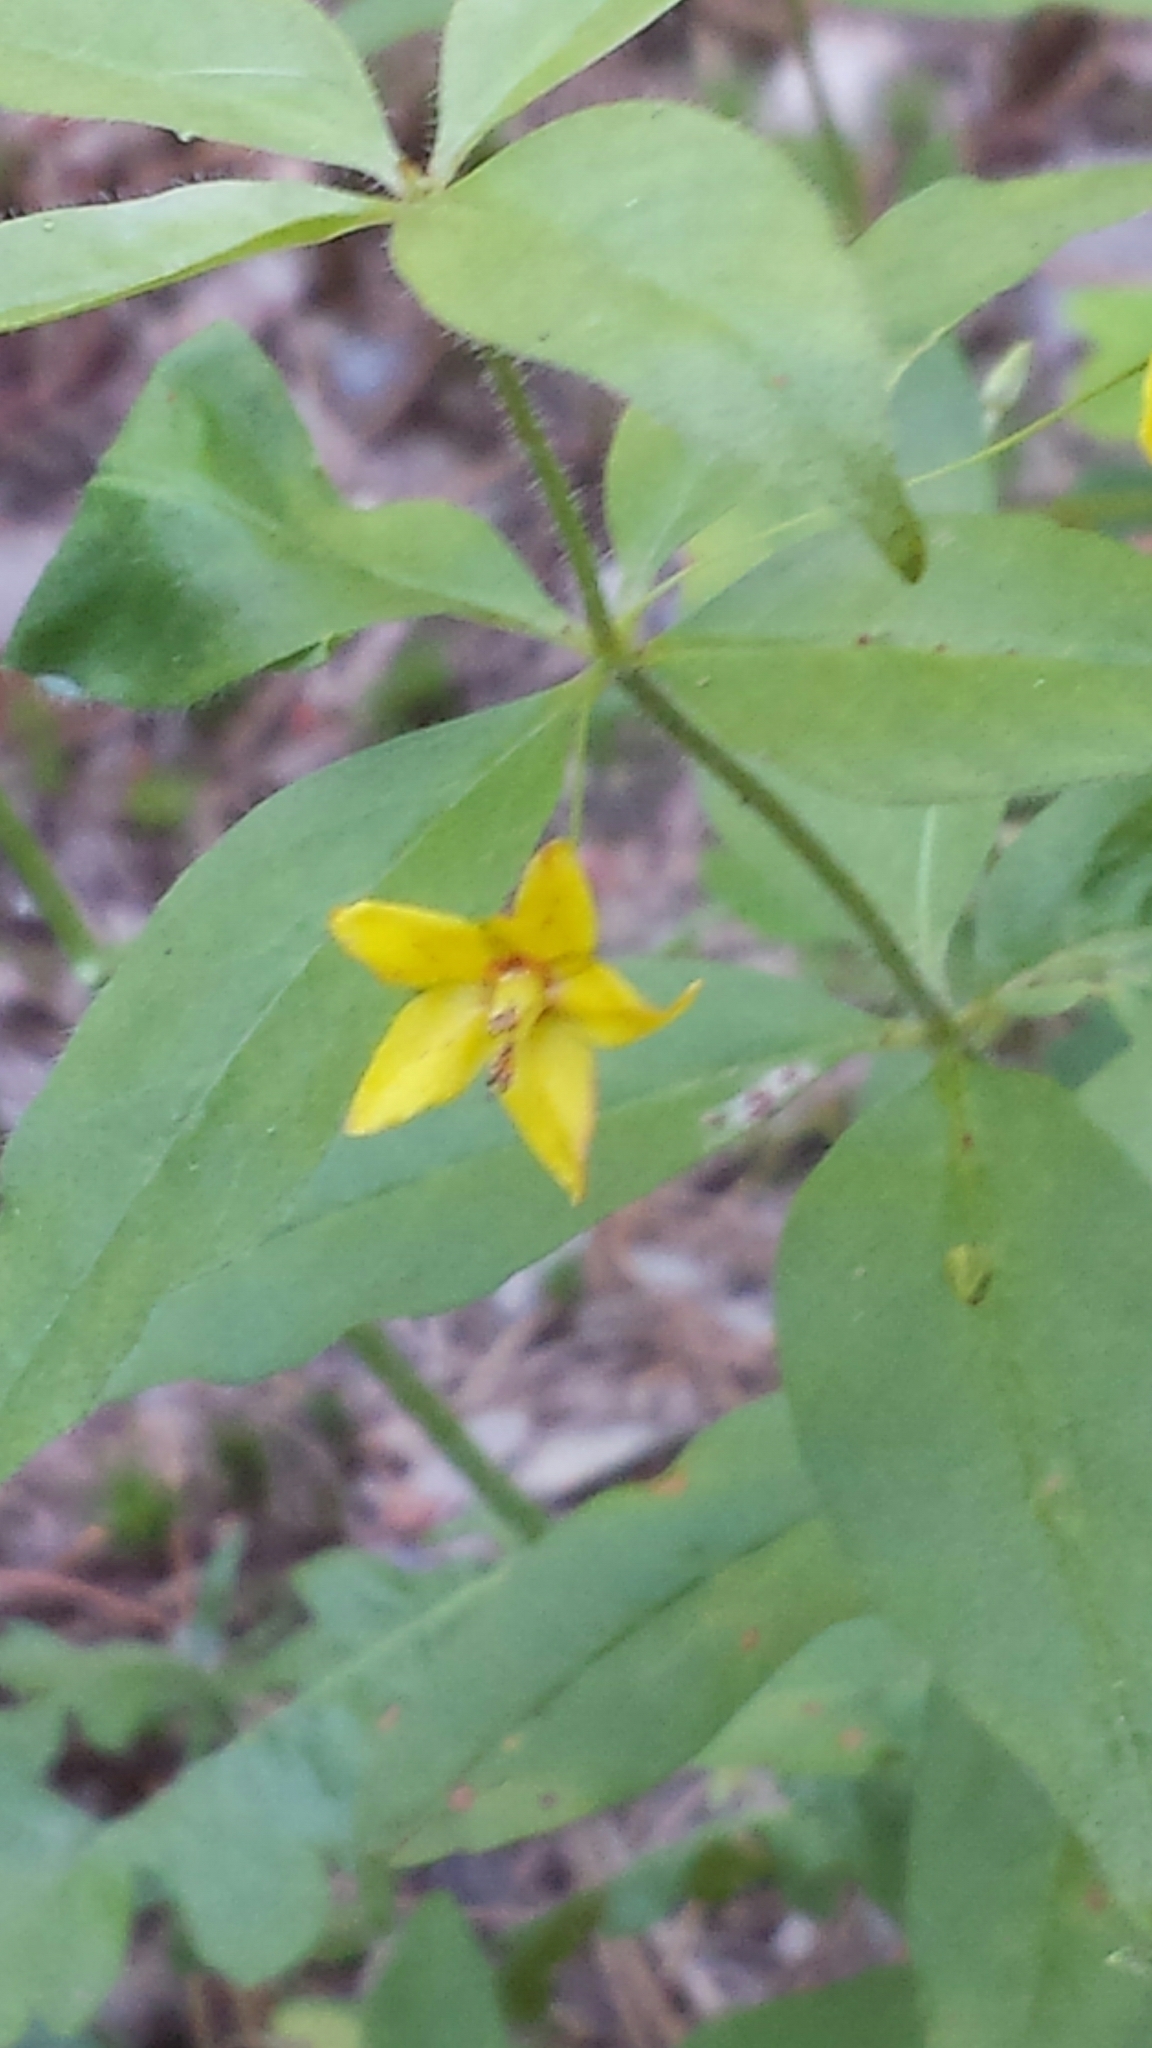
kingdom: Plantae
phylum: Tracheophyta
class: Magnoliopsida
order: Ericales
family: Primulaceae
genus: Lysimachia
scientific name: Lysimachia quadrifolia
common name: Whorled loosestrife
